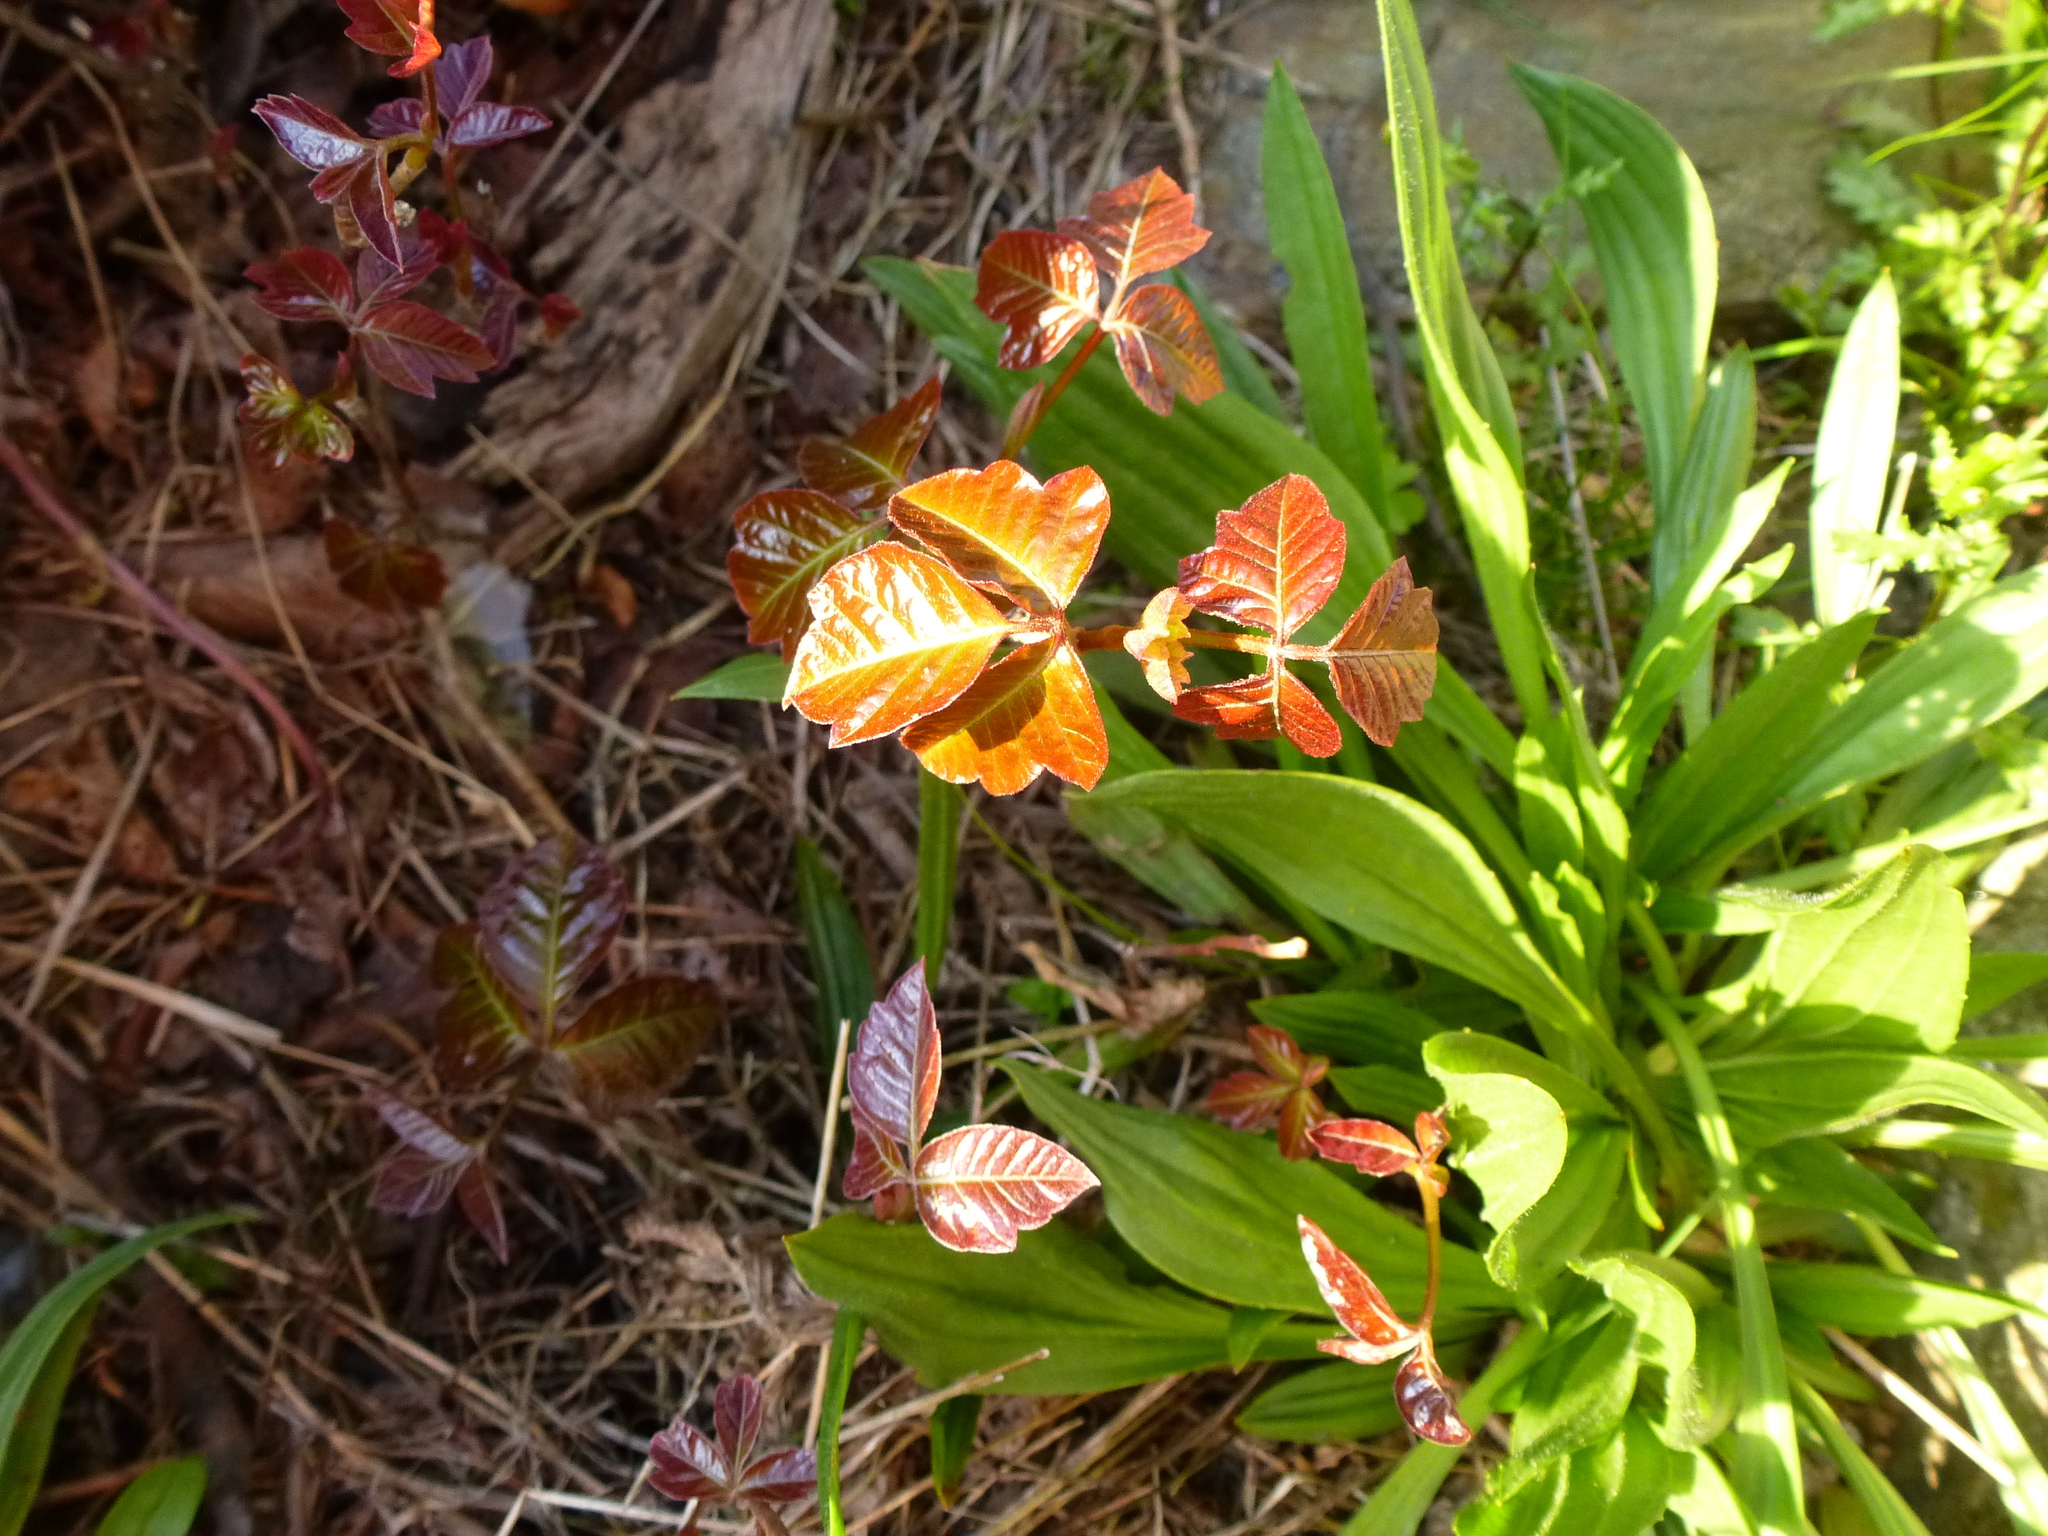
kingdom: Plantae
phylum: Tracheophyta
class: Magnoliopsida
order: Sapindales
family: Anacardiaceae
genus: Toxicodendron
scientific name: Toxicodendron radicans
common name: Poison ivy
